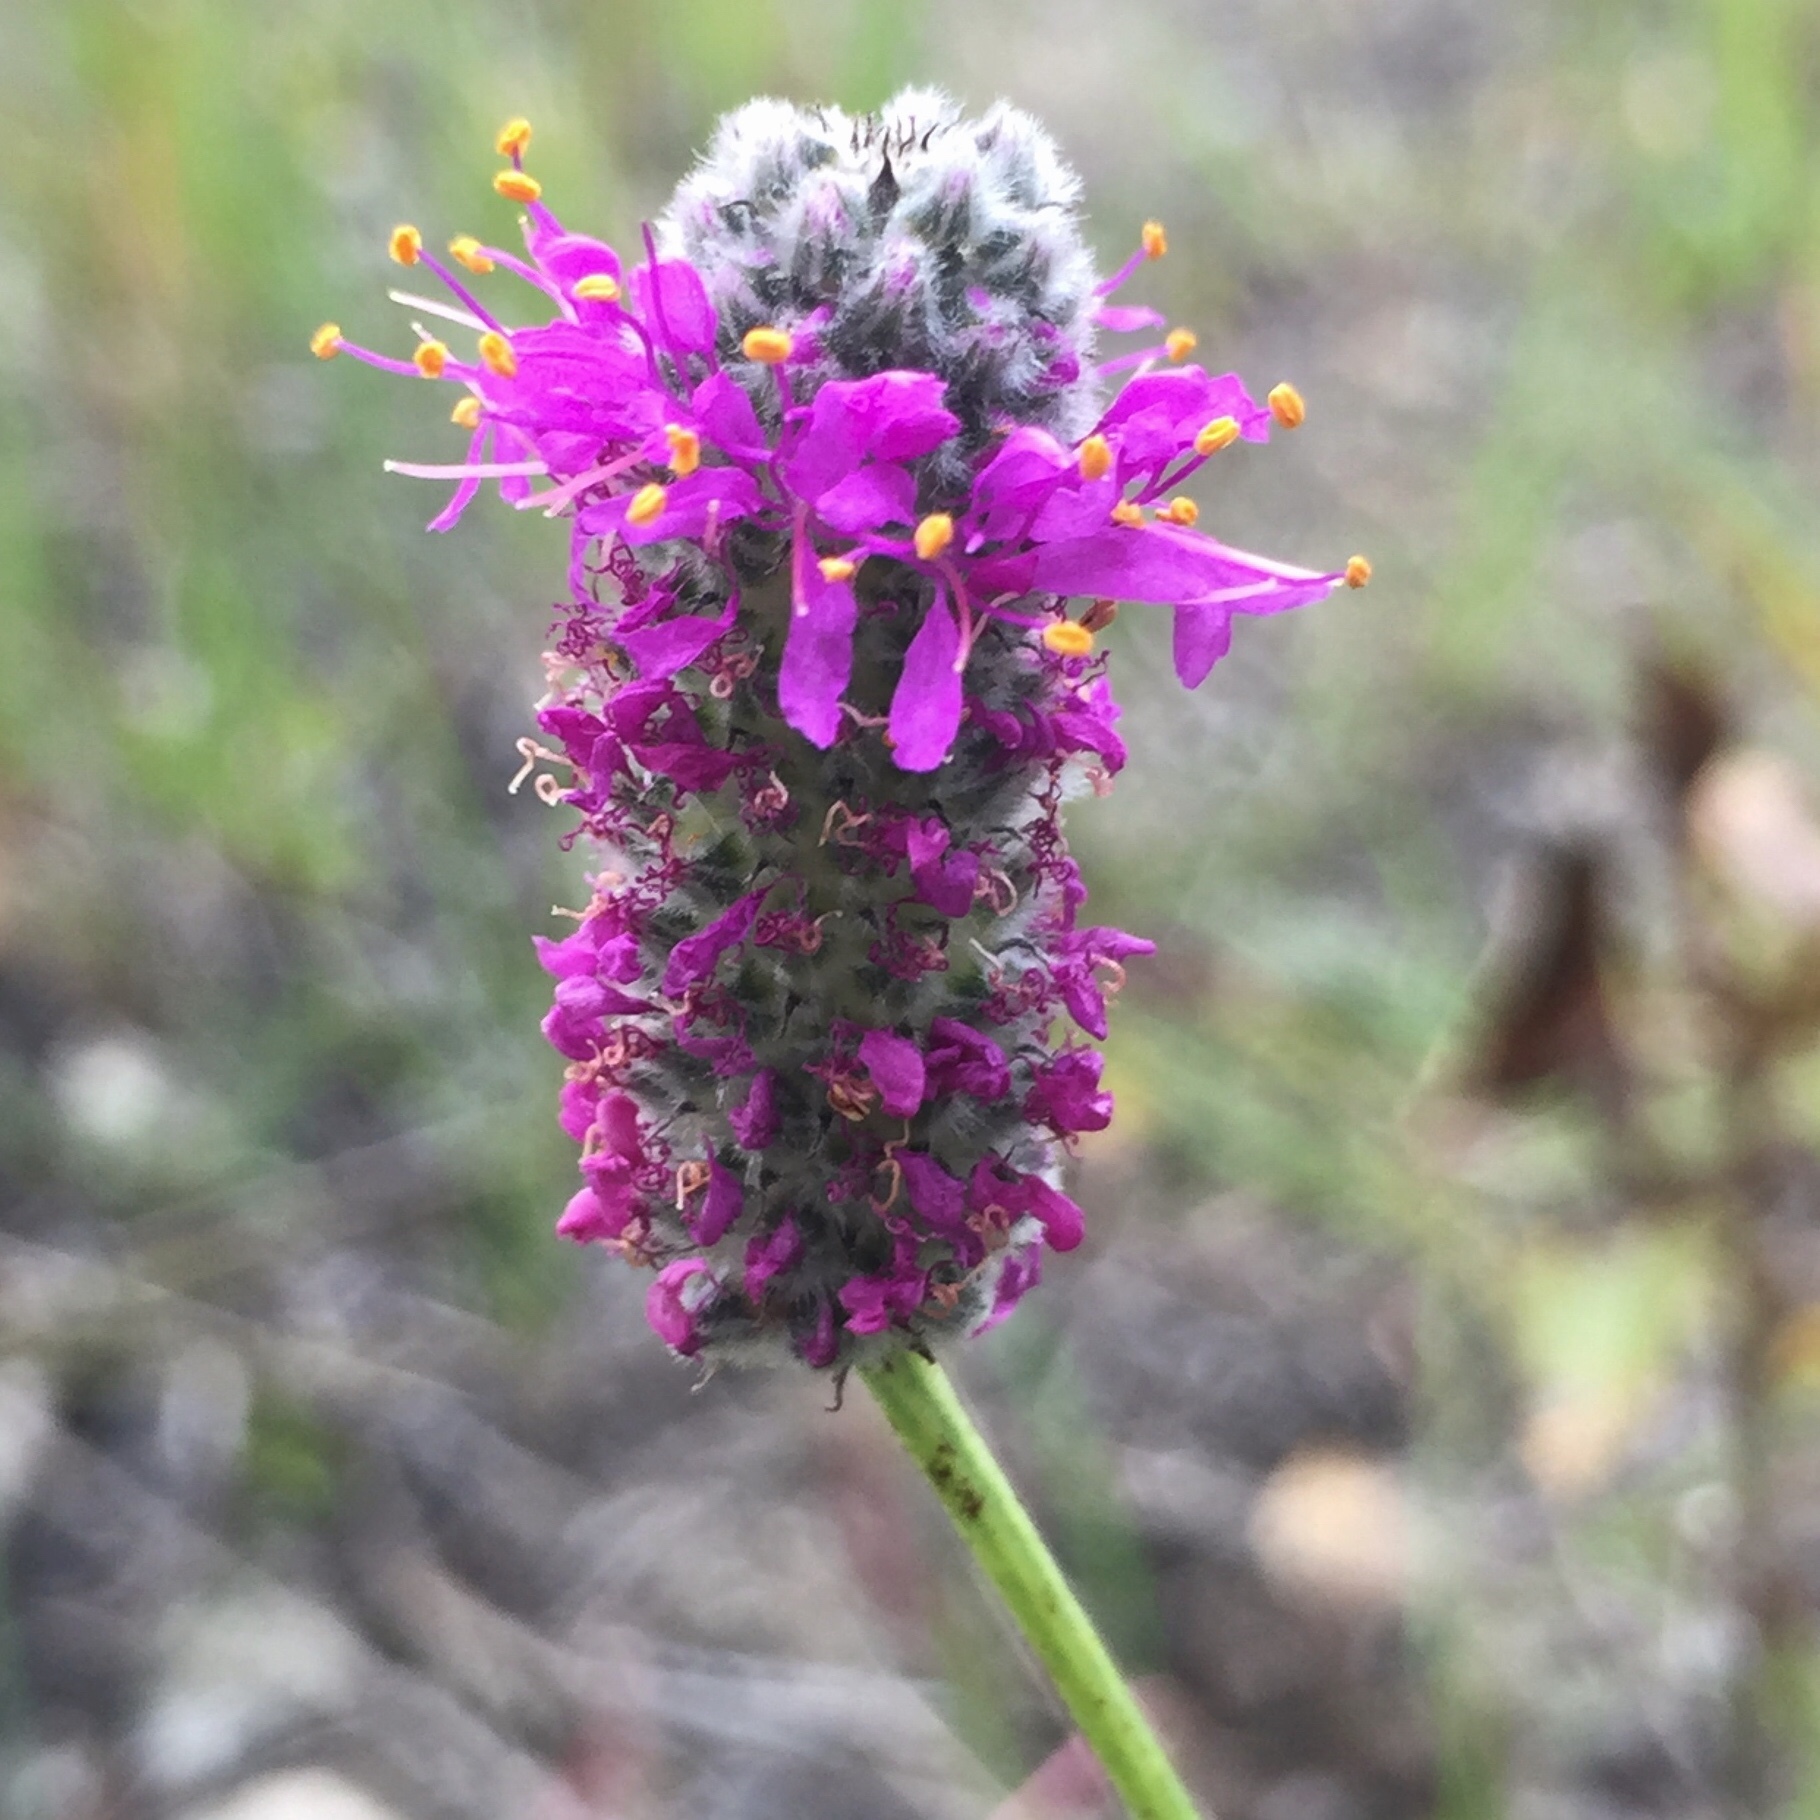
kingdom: Plantae
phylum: Tracheophyta
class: Magnoliopsida
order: Fabales
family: Fabaceae
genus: Dalea
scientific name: Dalea purpurea
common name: Purple prairie-clover
